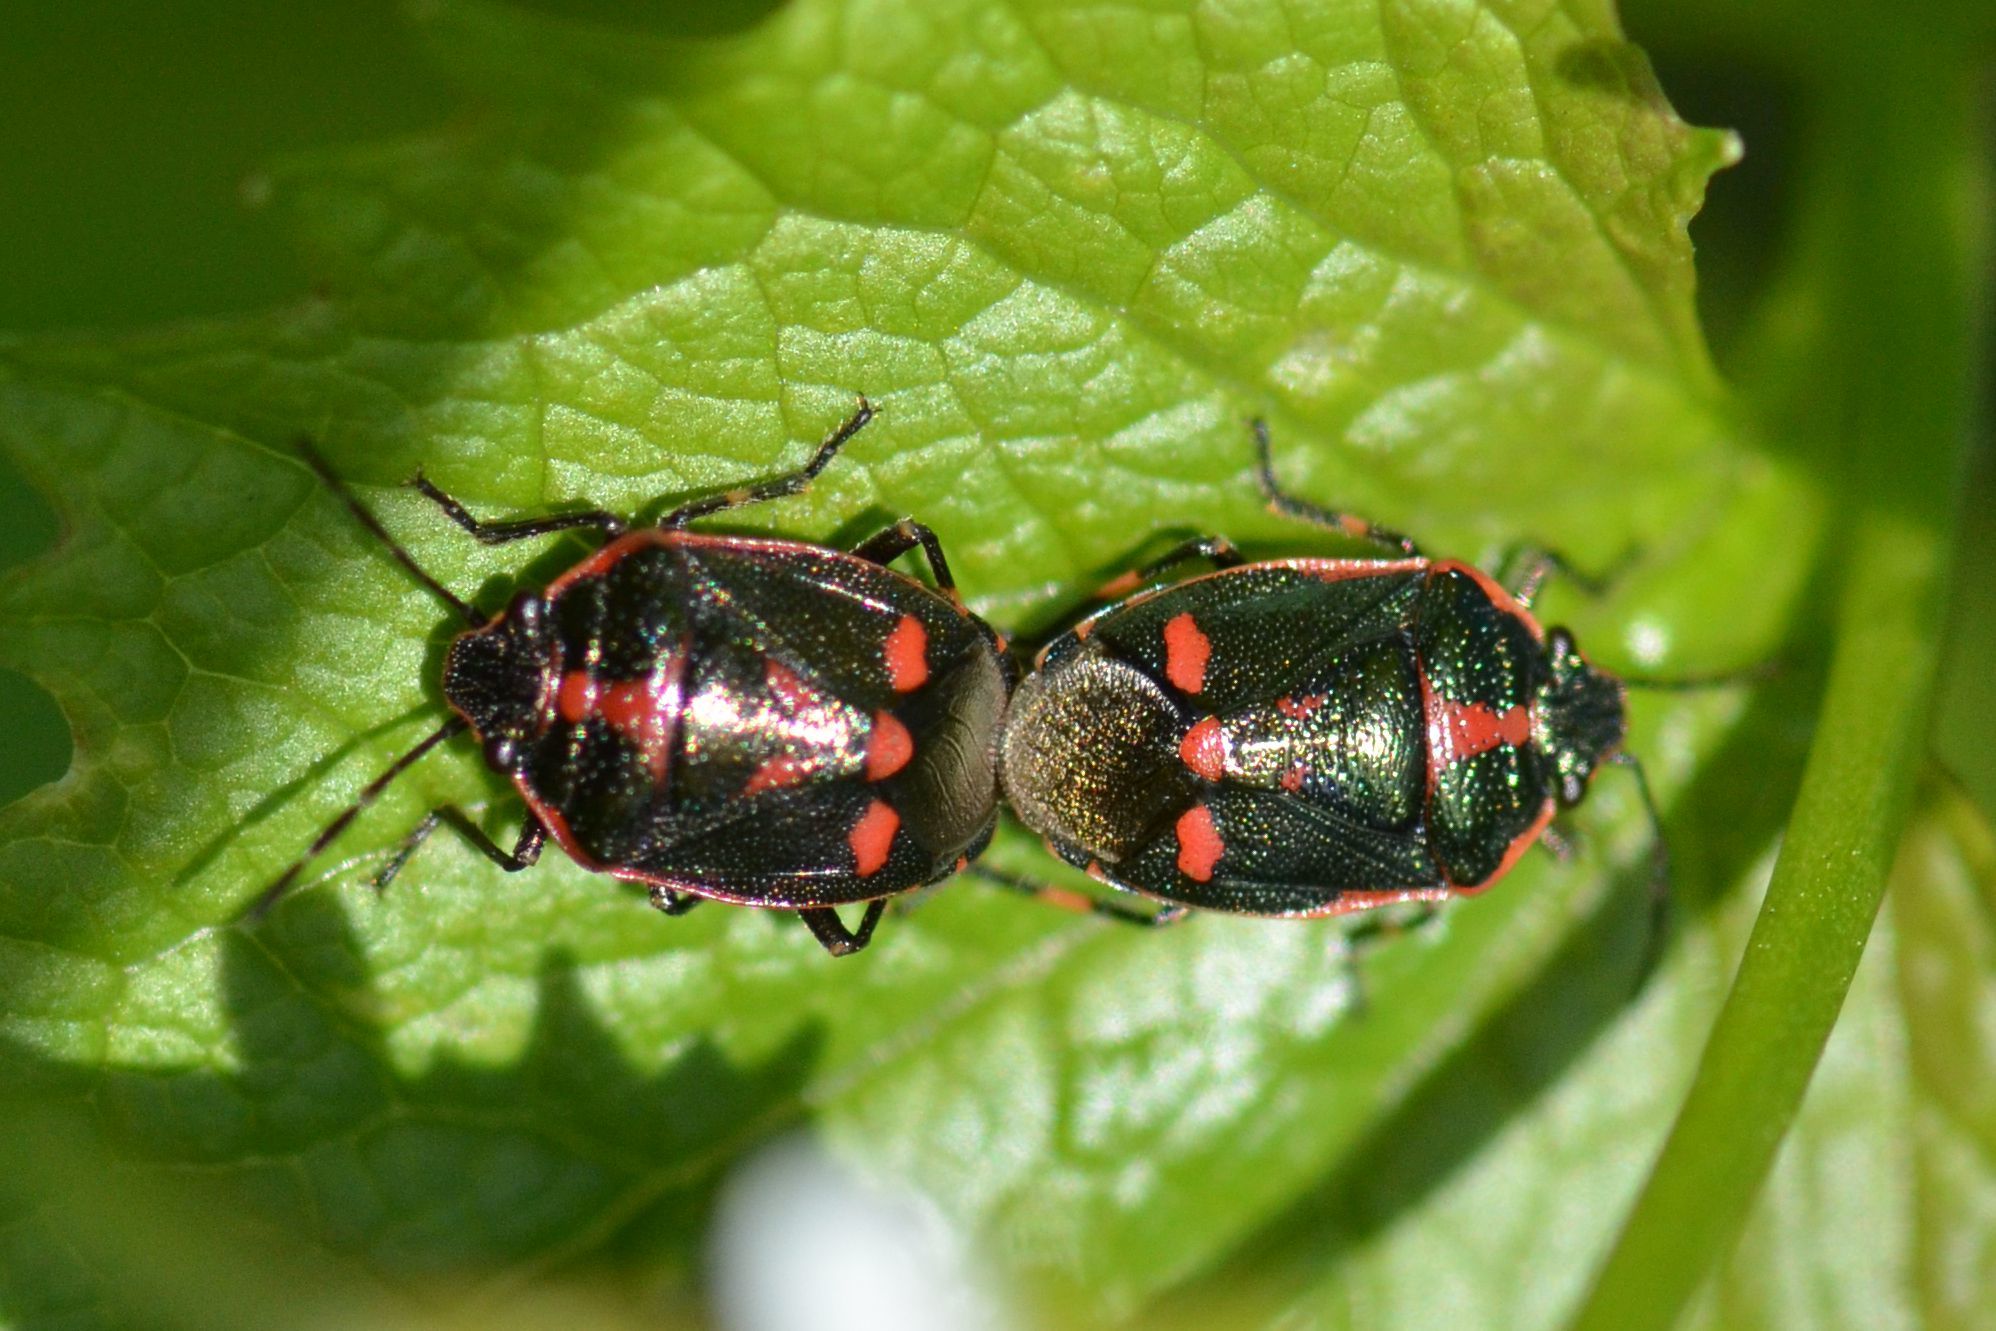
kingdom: Animalia
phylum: Arthropoda
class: Insecta
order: Hemiptera
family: Pentatomidae
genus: Eurydema
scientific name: Eurydema oleracea
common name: Cabbage bug
